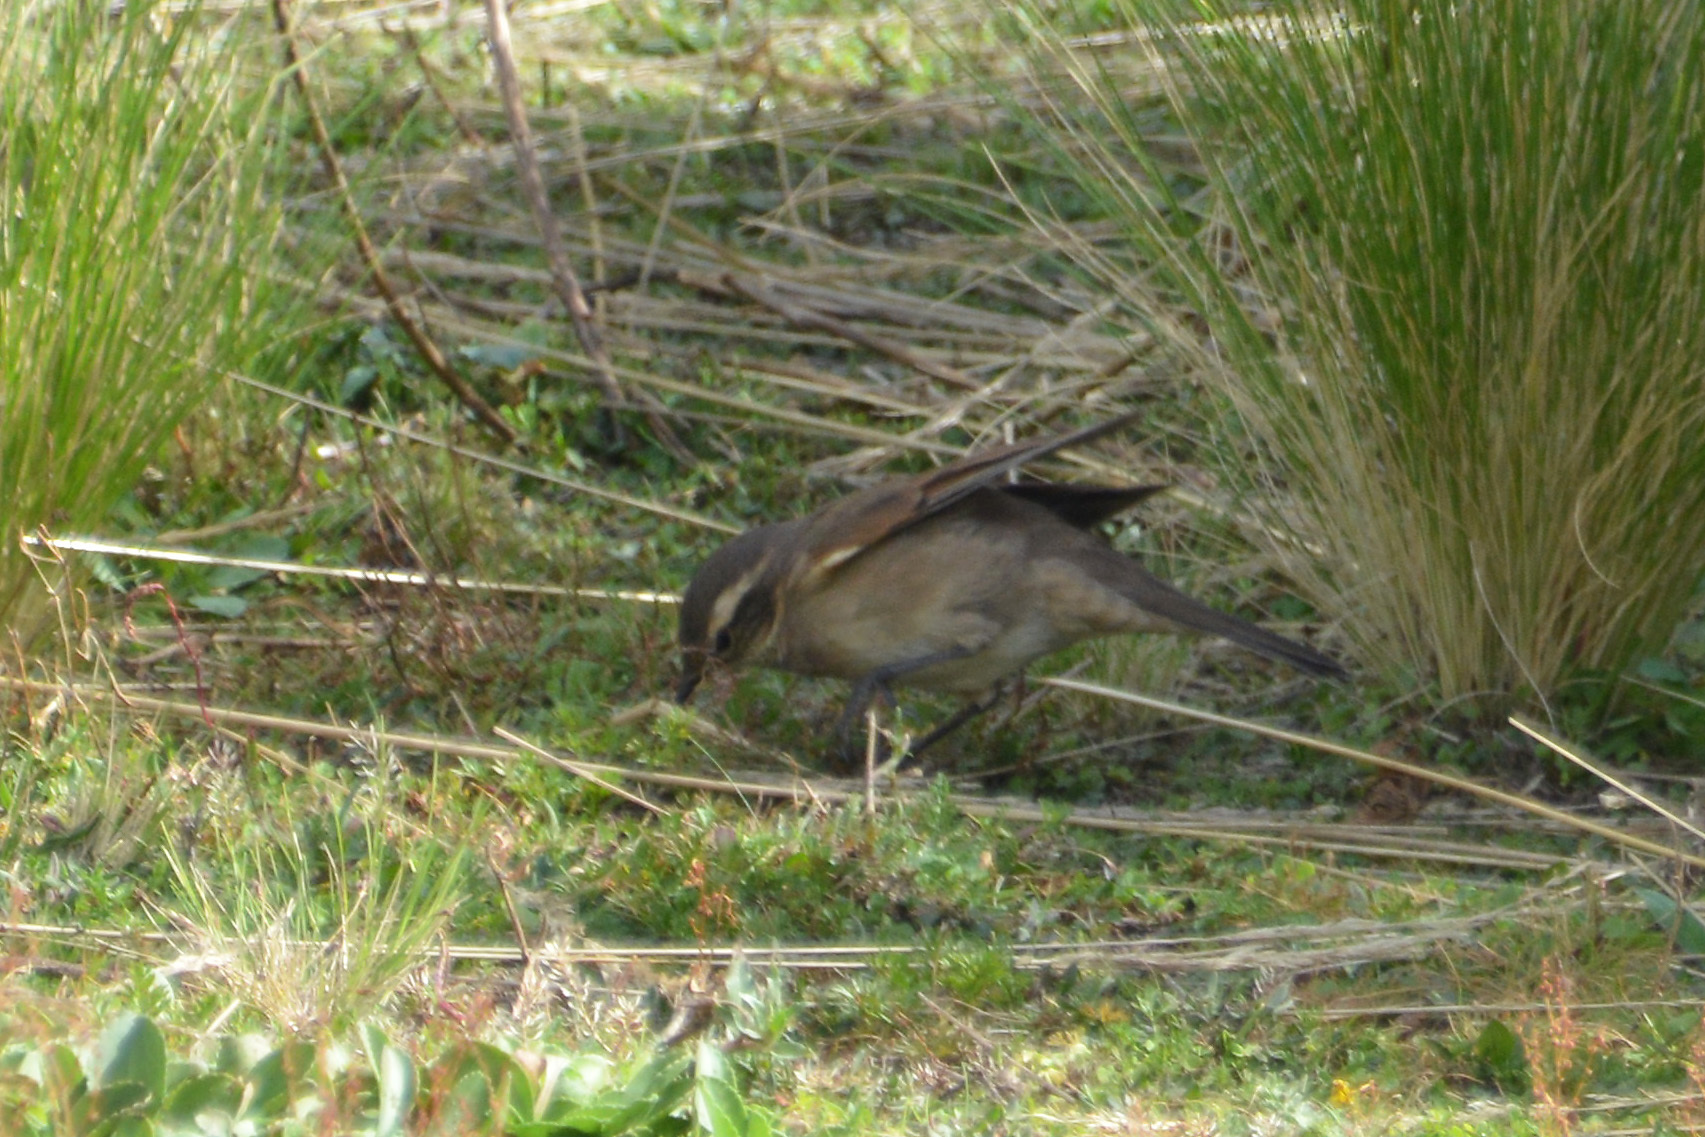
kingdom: Animalia
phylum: Chordata
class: Aves
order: Passeriformes
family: Furnariidae
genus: Cinclodes
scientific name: Cinclodes comechingonus
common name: Cordoba cinclodes
